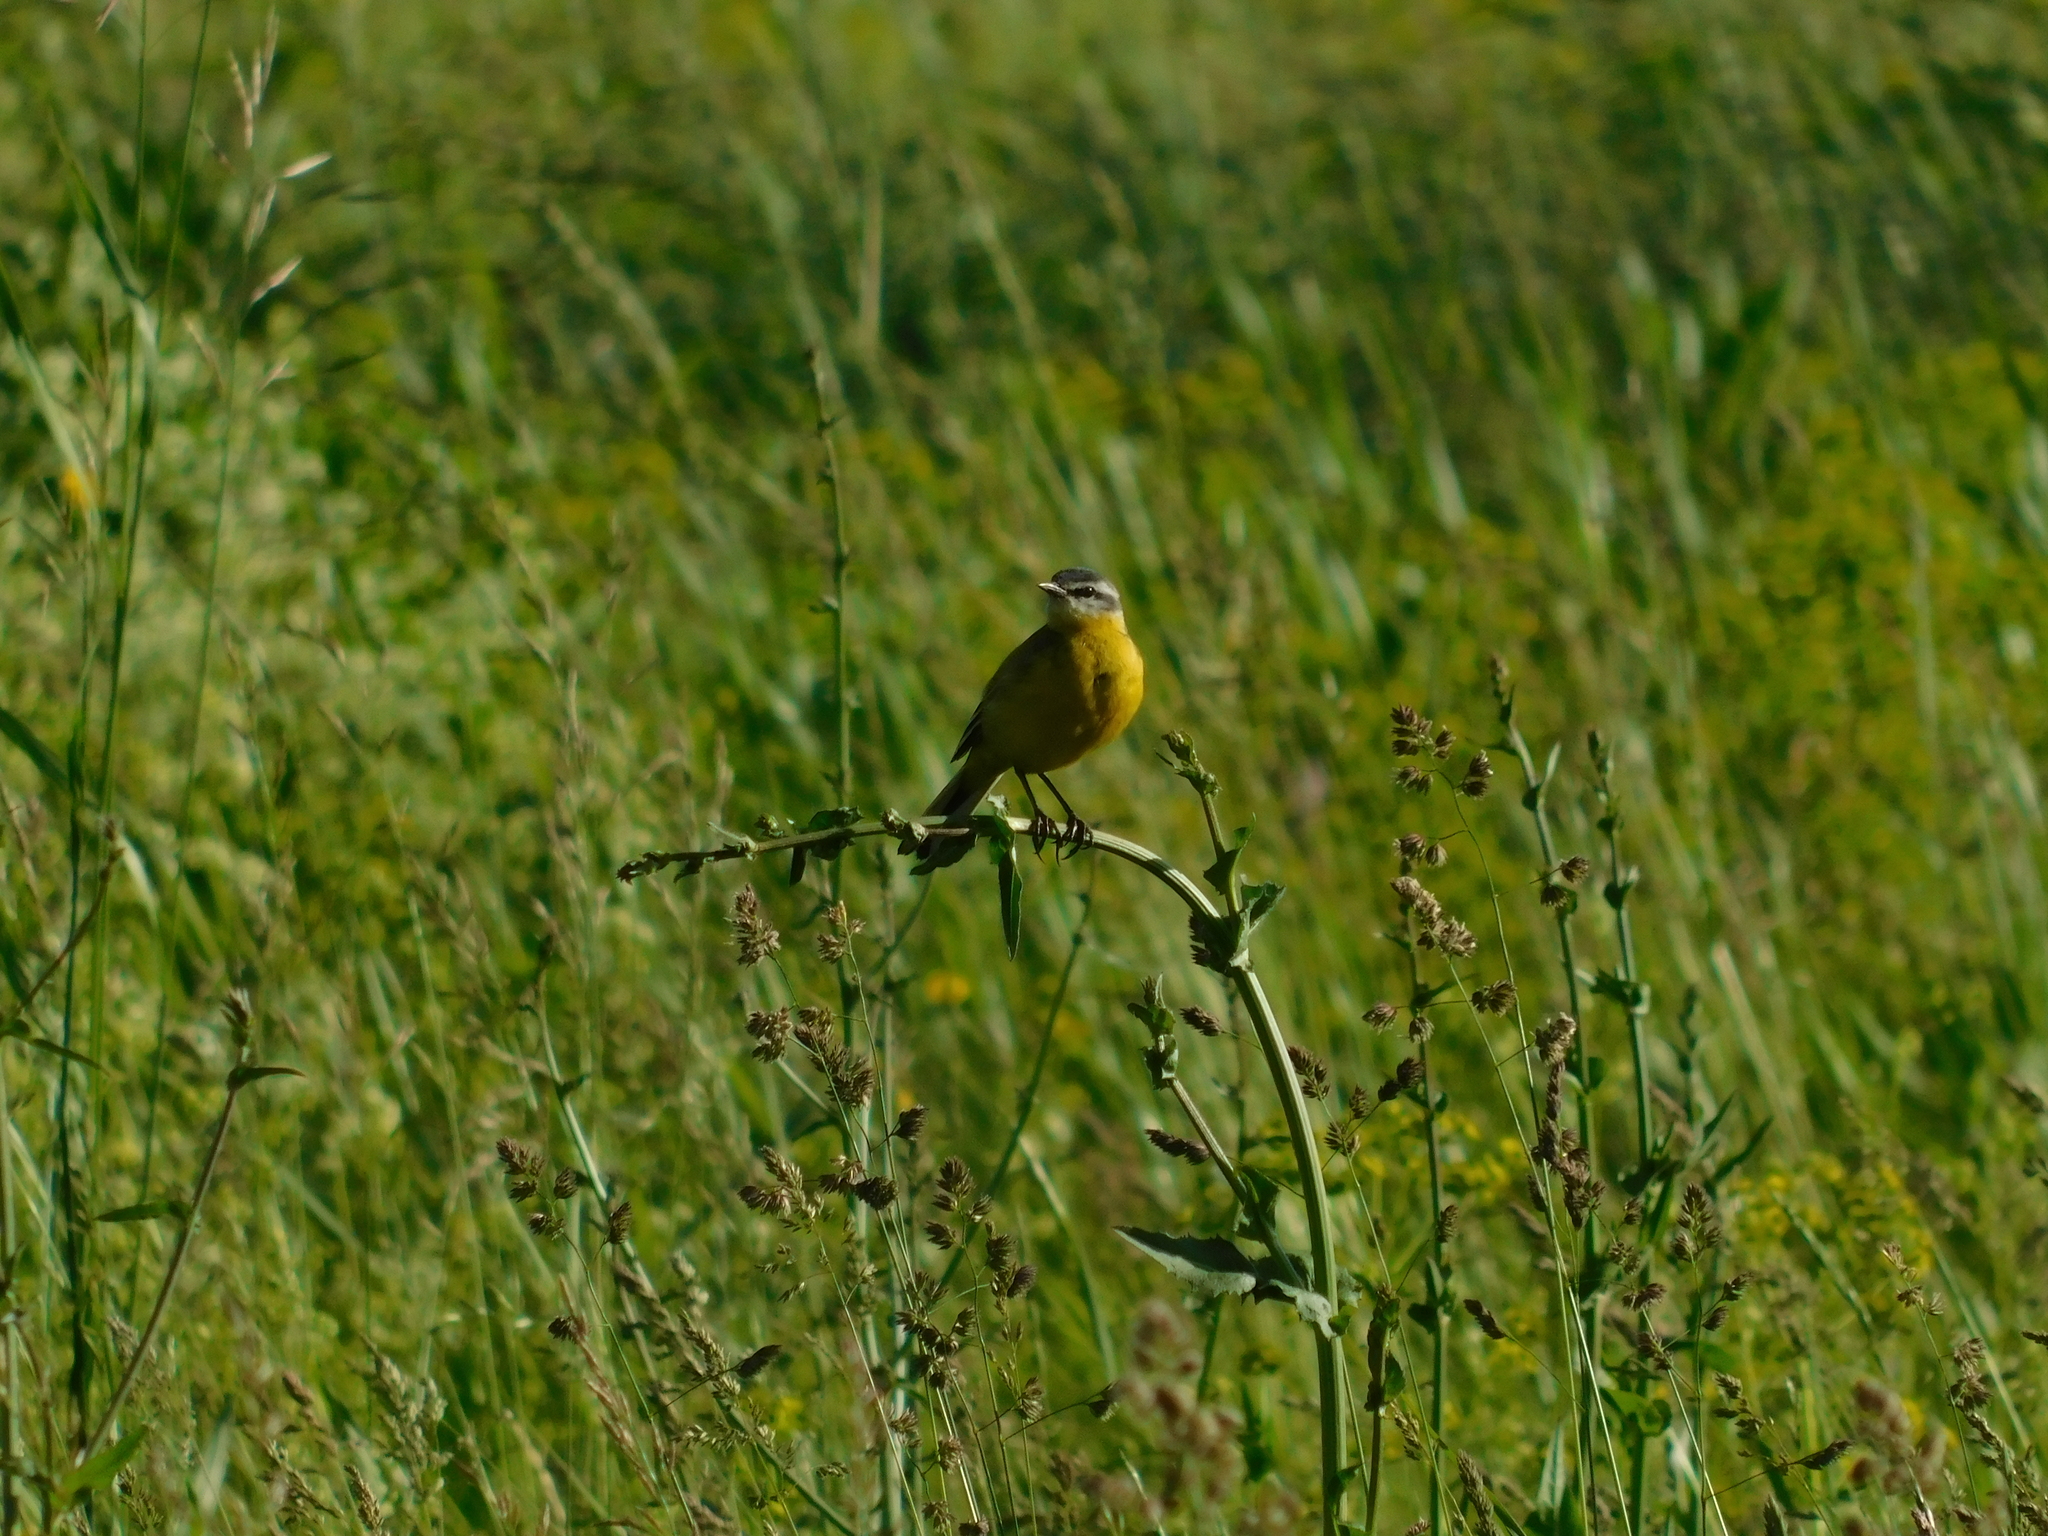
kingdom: Animalia
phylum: Chordata
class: Aves
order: Passeriformes
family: Motacillidae
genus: Motacilla
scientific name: Motacilla flava
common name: Western yellow wagtail
